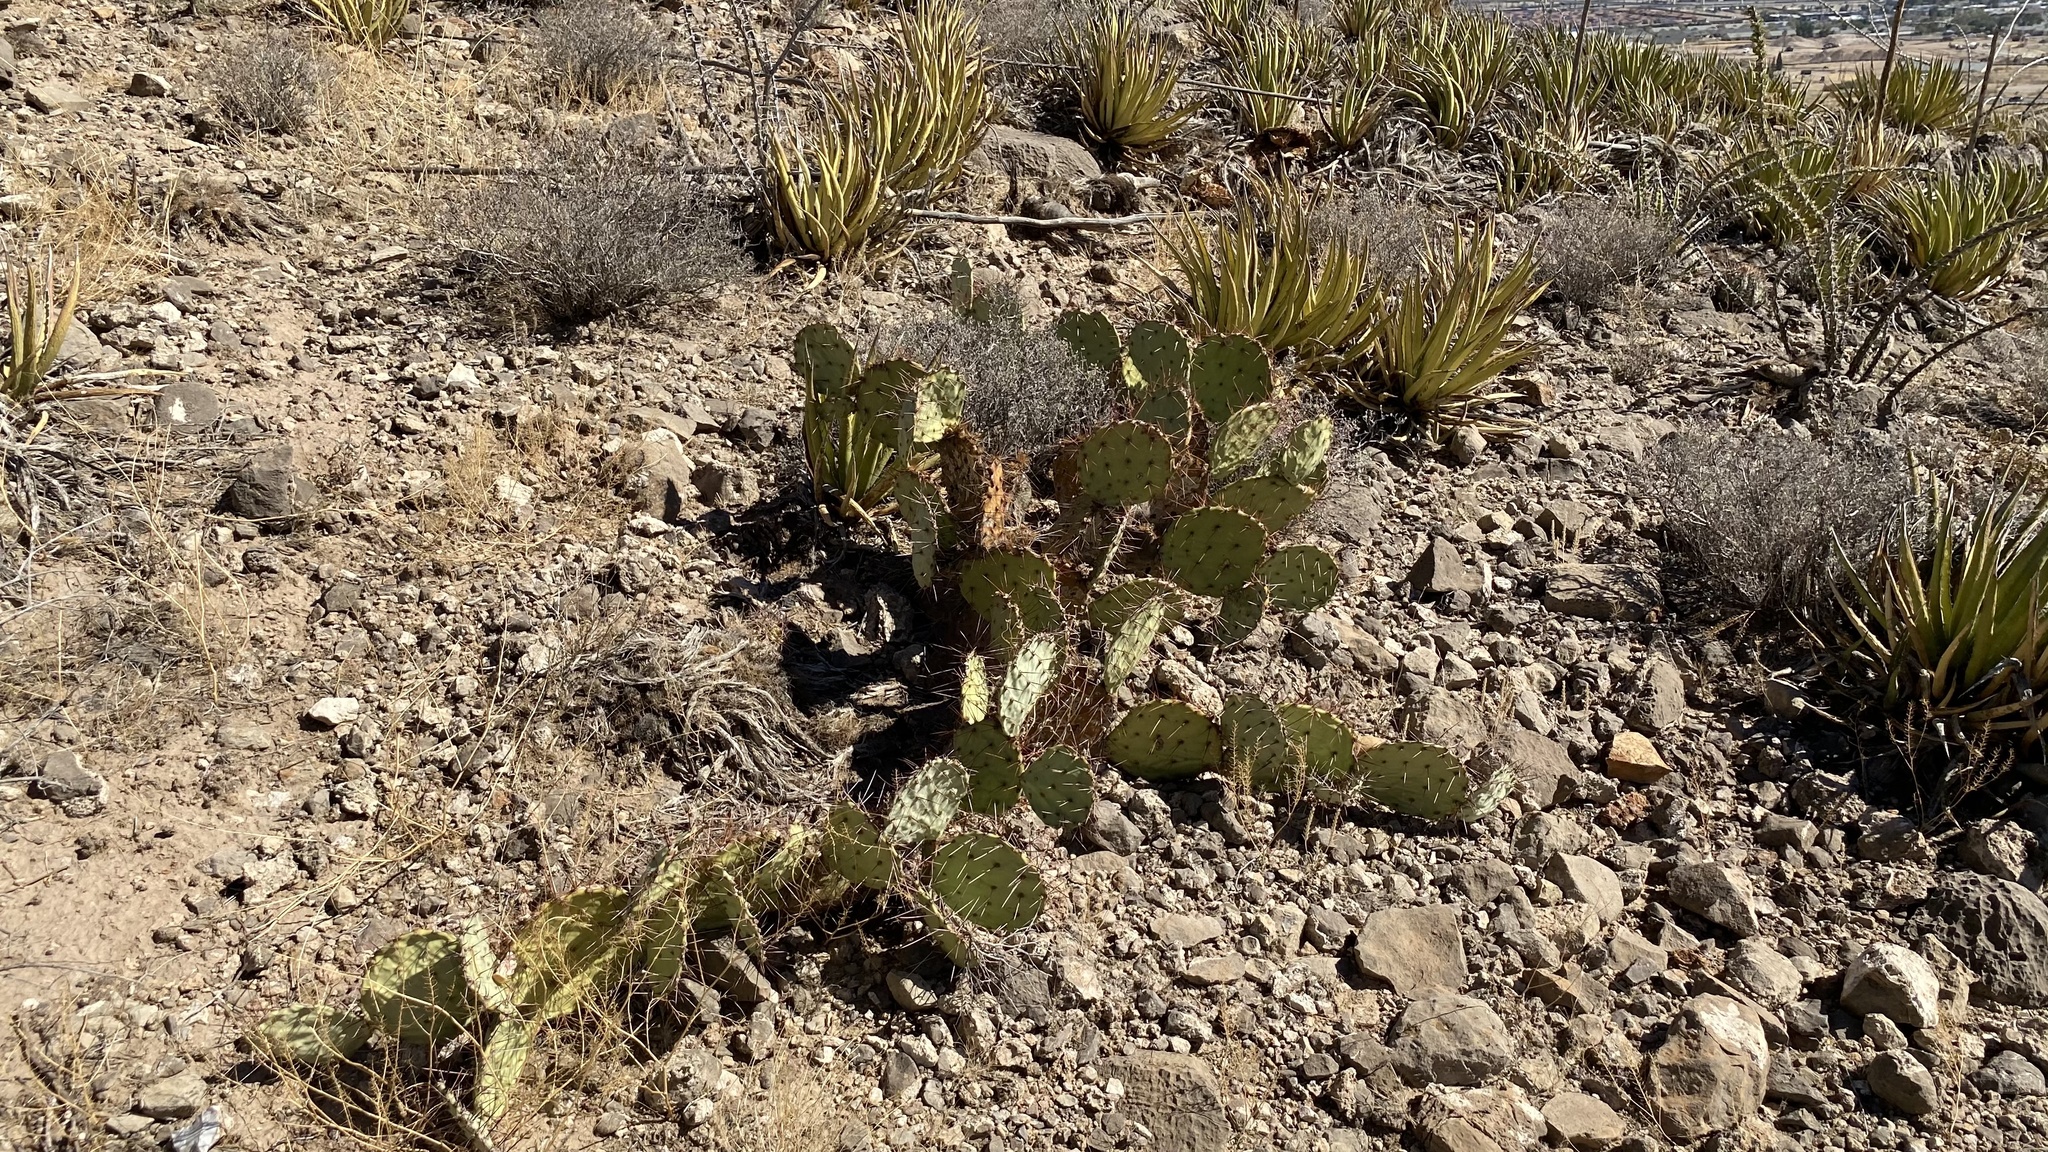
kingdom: Plantae
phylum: Tracheophyta
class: Magnoliopsida
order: Caryophyllales
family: Cactaceae
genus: Opuntia
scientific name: Opuntia engelmannii
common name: Cactus-apple
